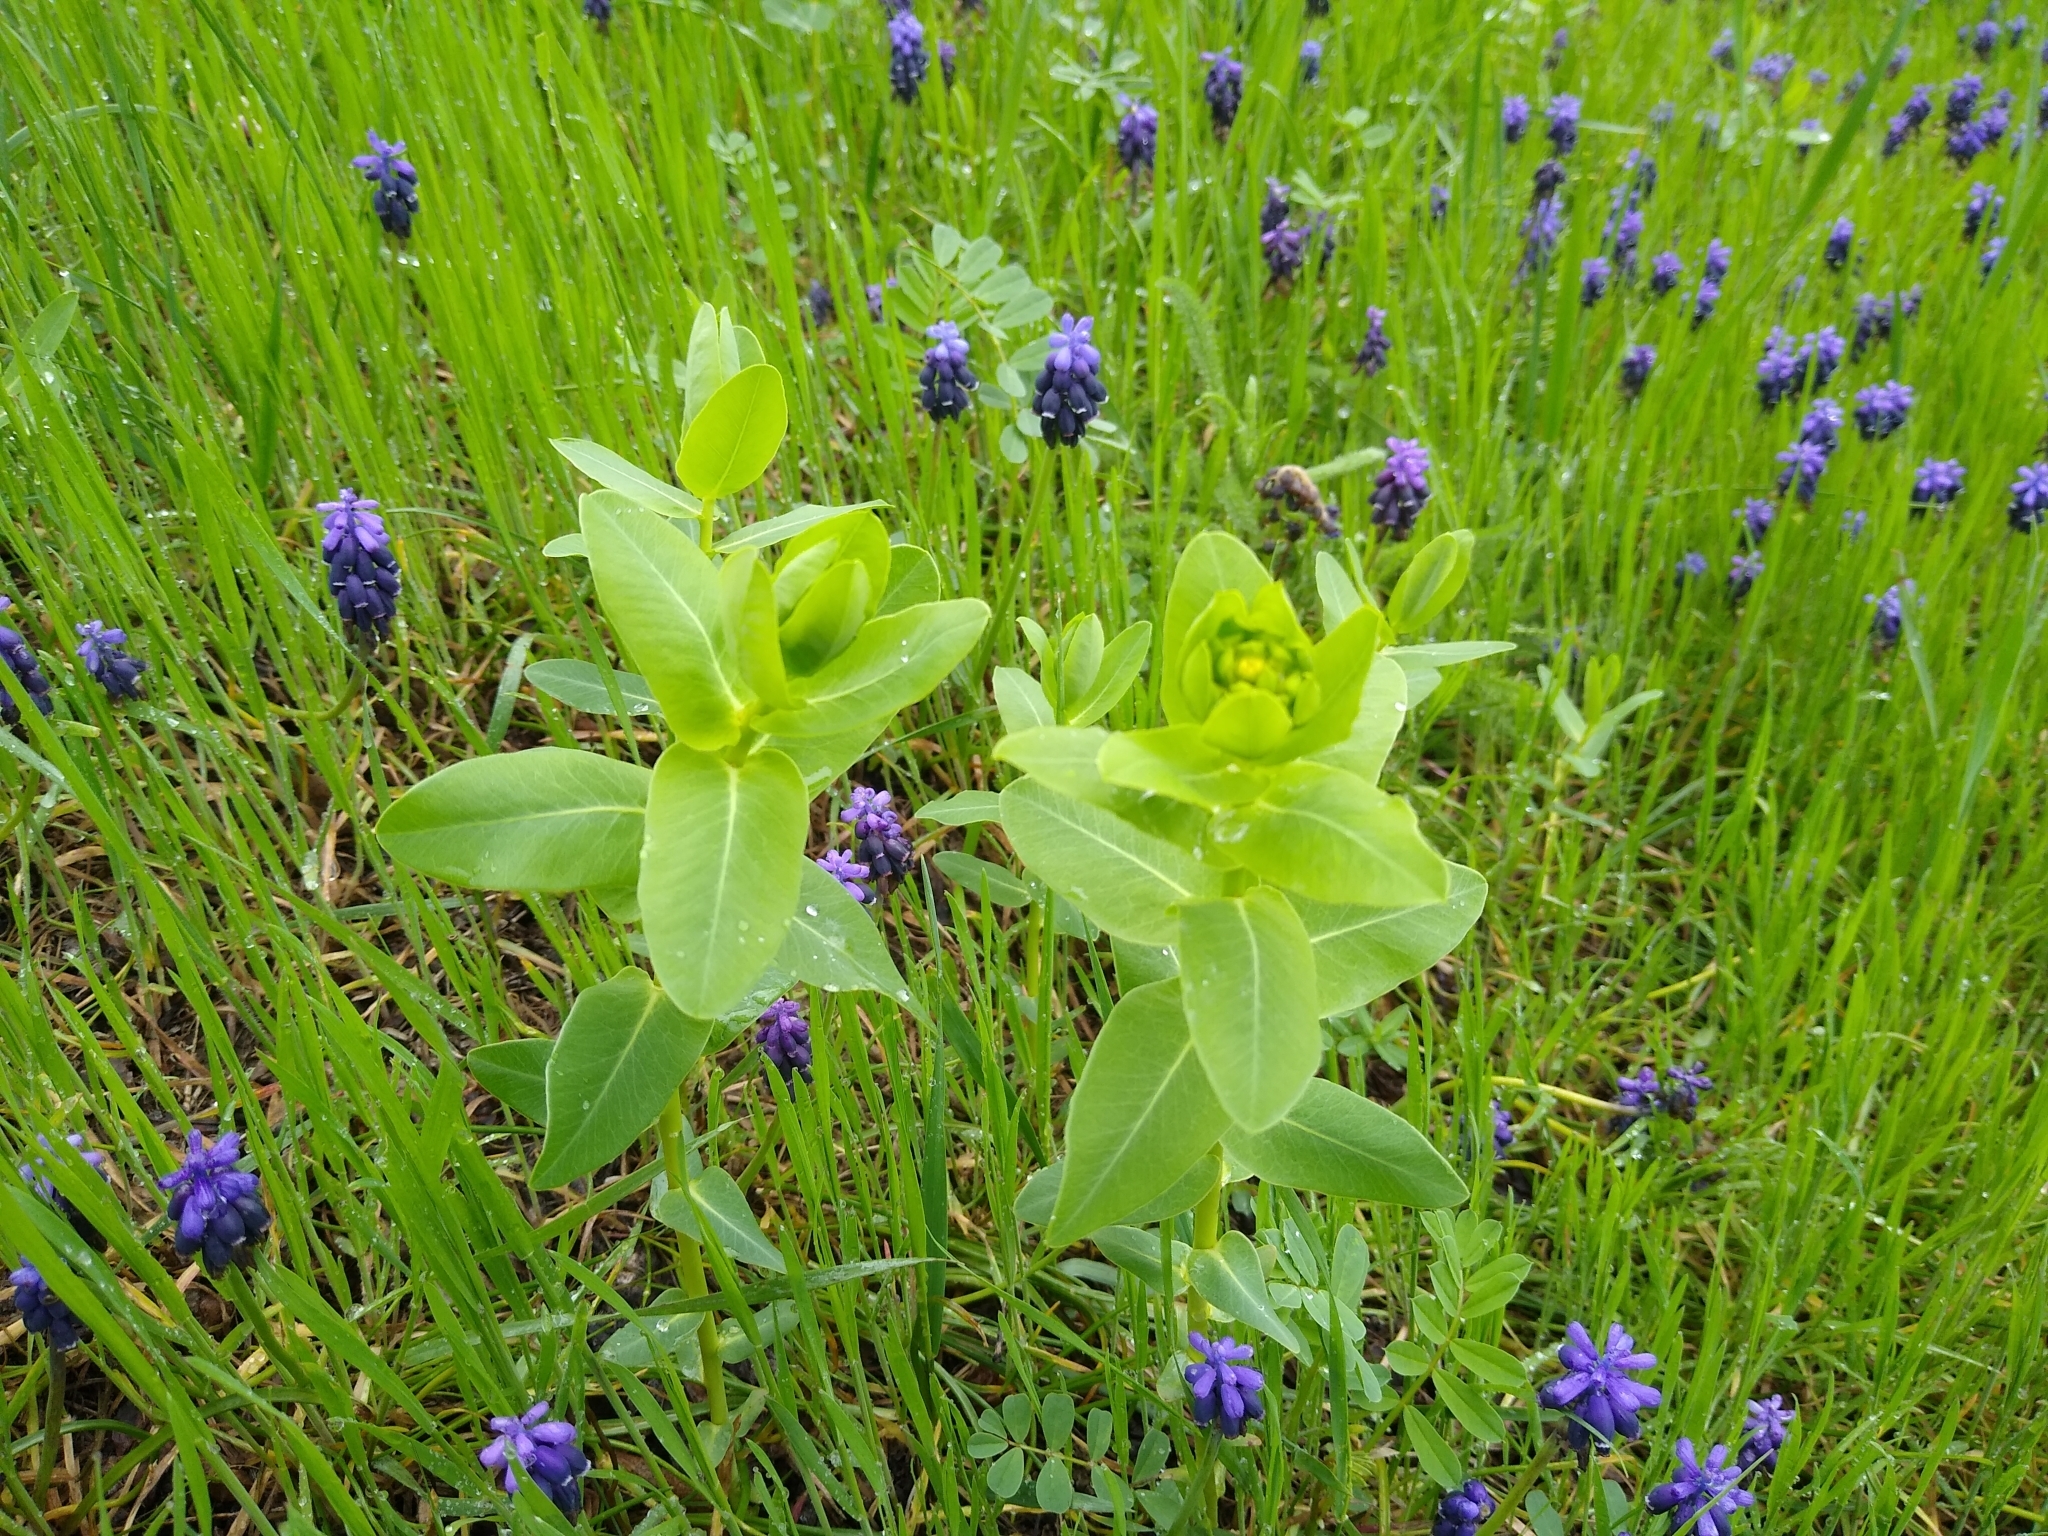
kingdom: Plantae
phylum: Tracheophyta
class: Magnoliopsida
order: Malpighiales
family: Euphorbiaceae
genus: Euphorbia
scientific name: Euphorbia agraria
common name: Urban spurge
